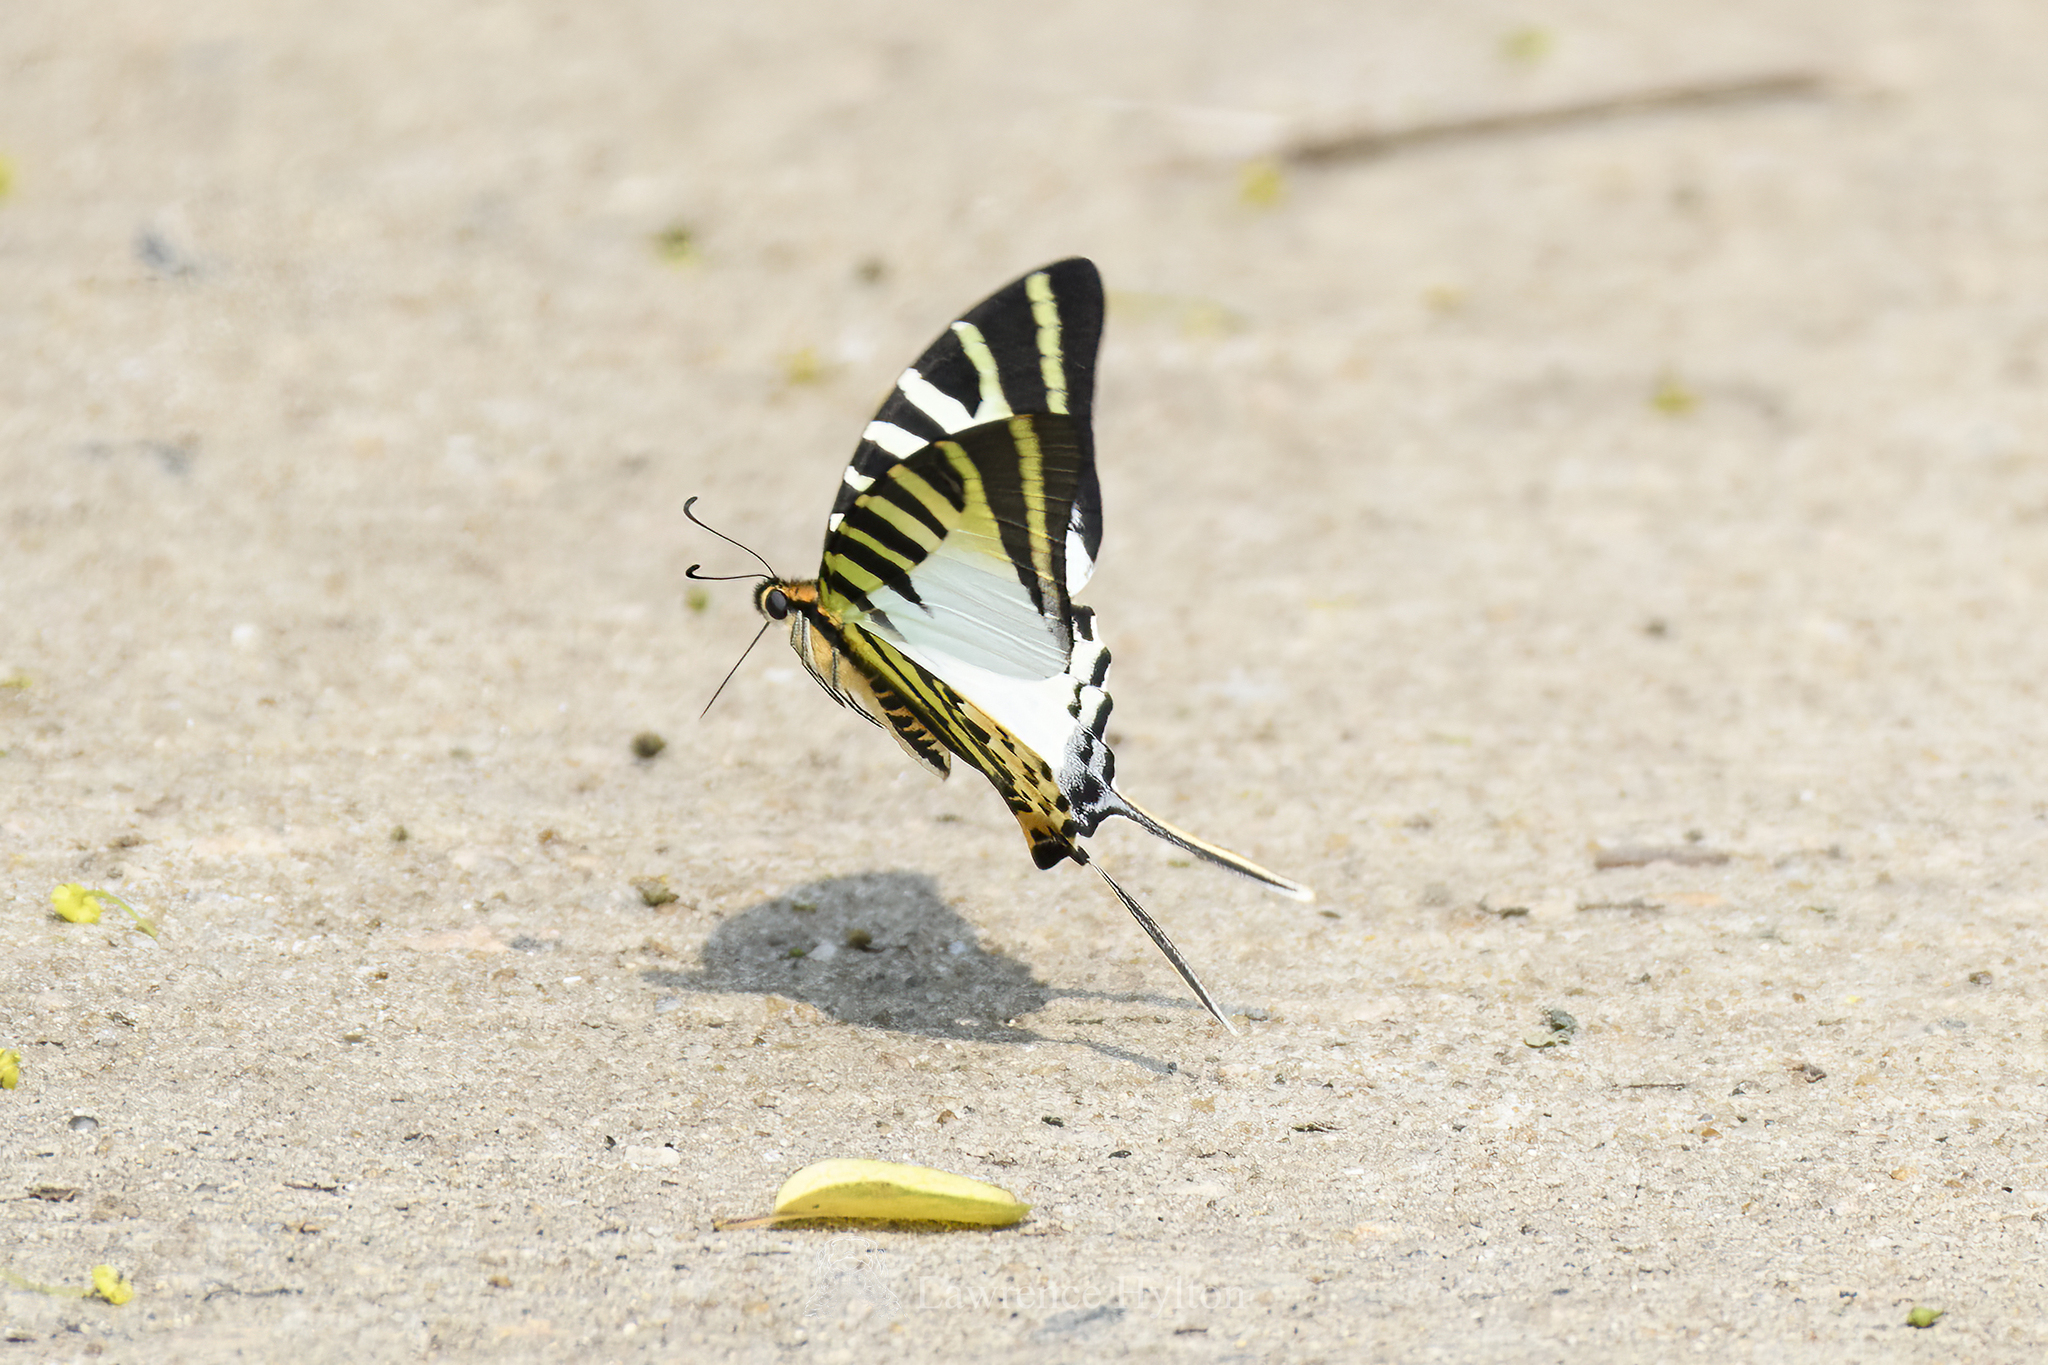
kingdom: Animalia
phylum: Arthropoda
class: Insecta
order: Lepidoptera
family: Papilionidae
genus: Graphium
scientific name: Graphium antiphates
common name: Fivebar swordtail
